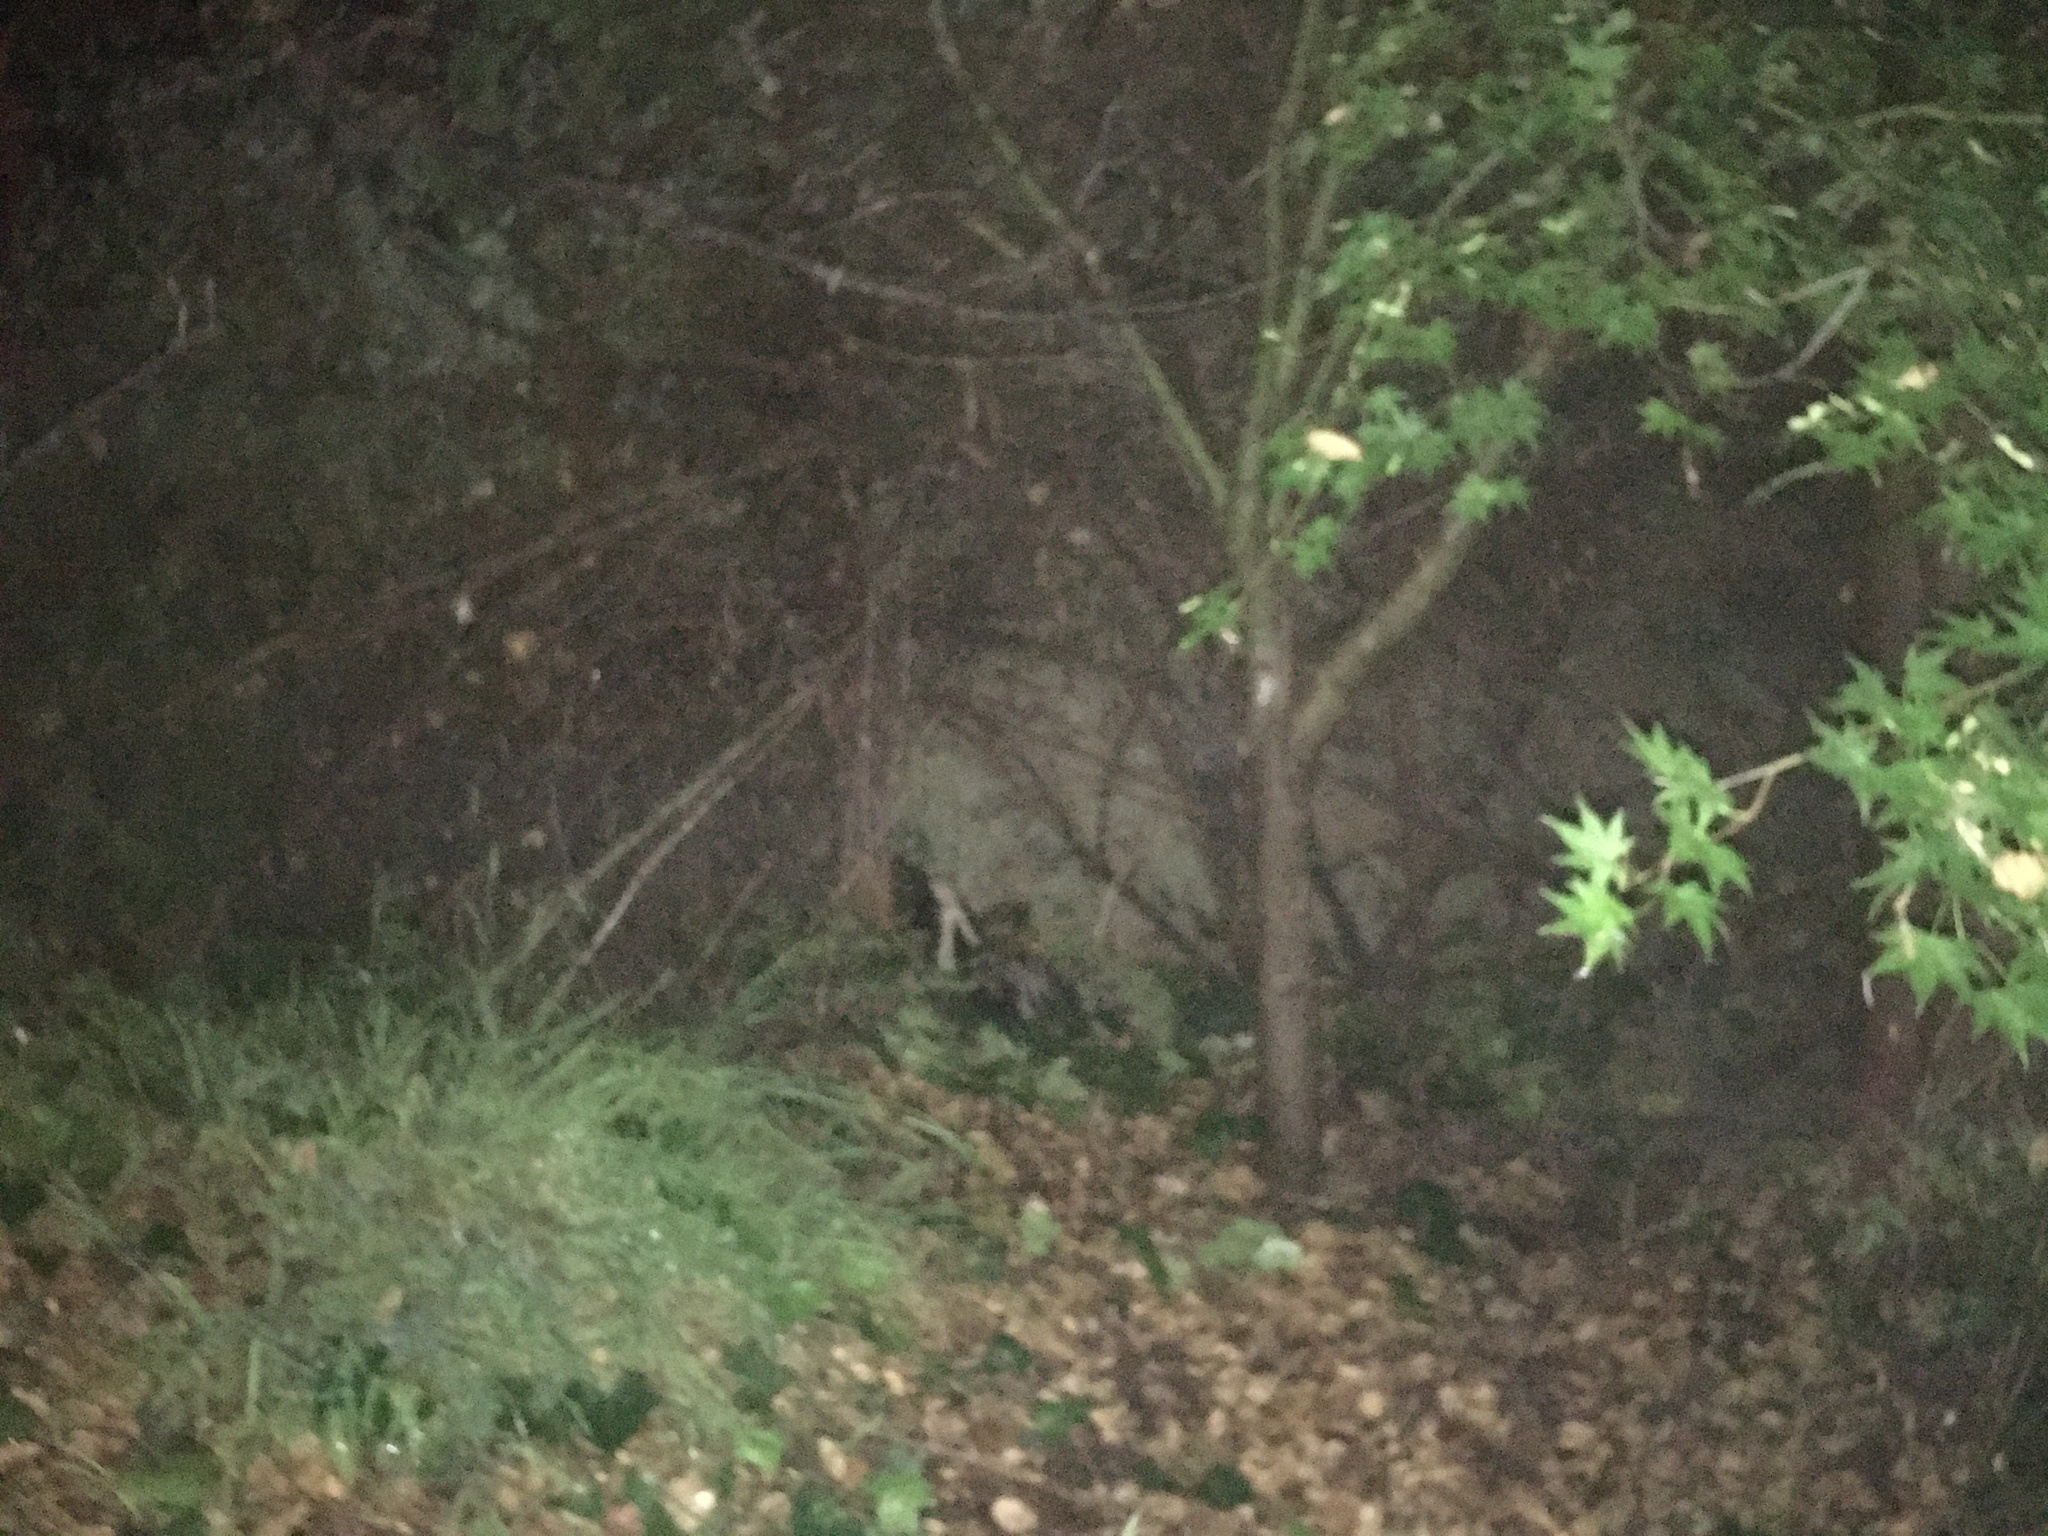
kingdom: Animalia
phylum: Chordata
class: Mammalia
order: Carnivora
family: Mephitidae
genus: Mephitis
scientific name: Mephitis mephitis
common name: Striped skunk
